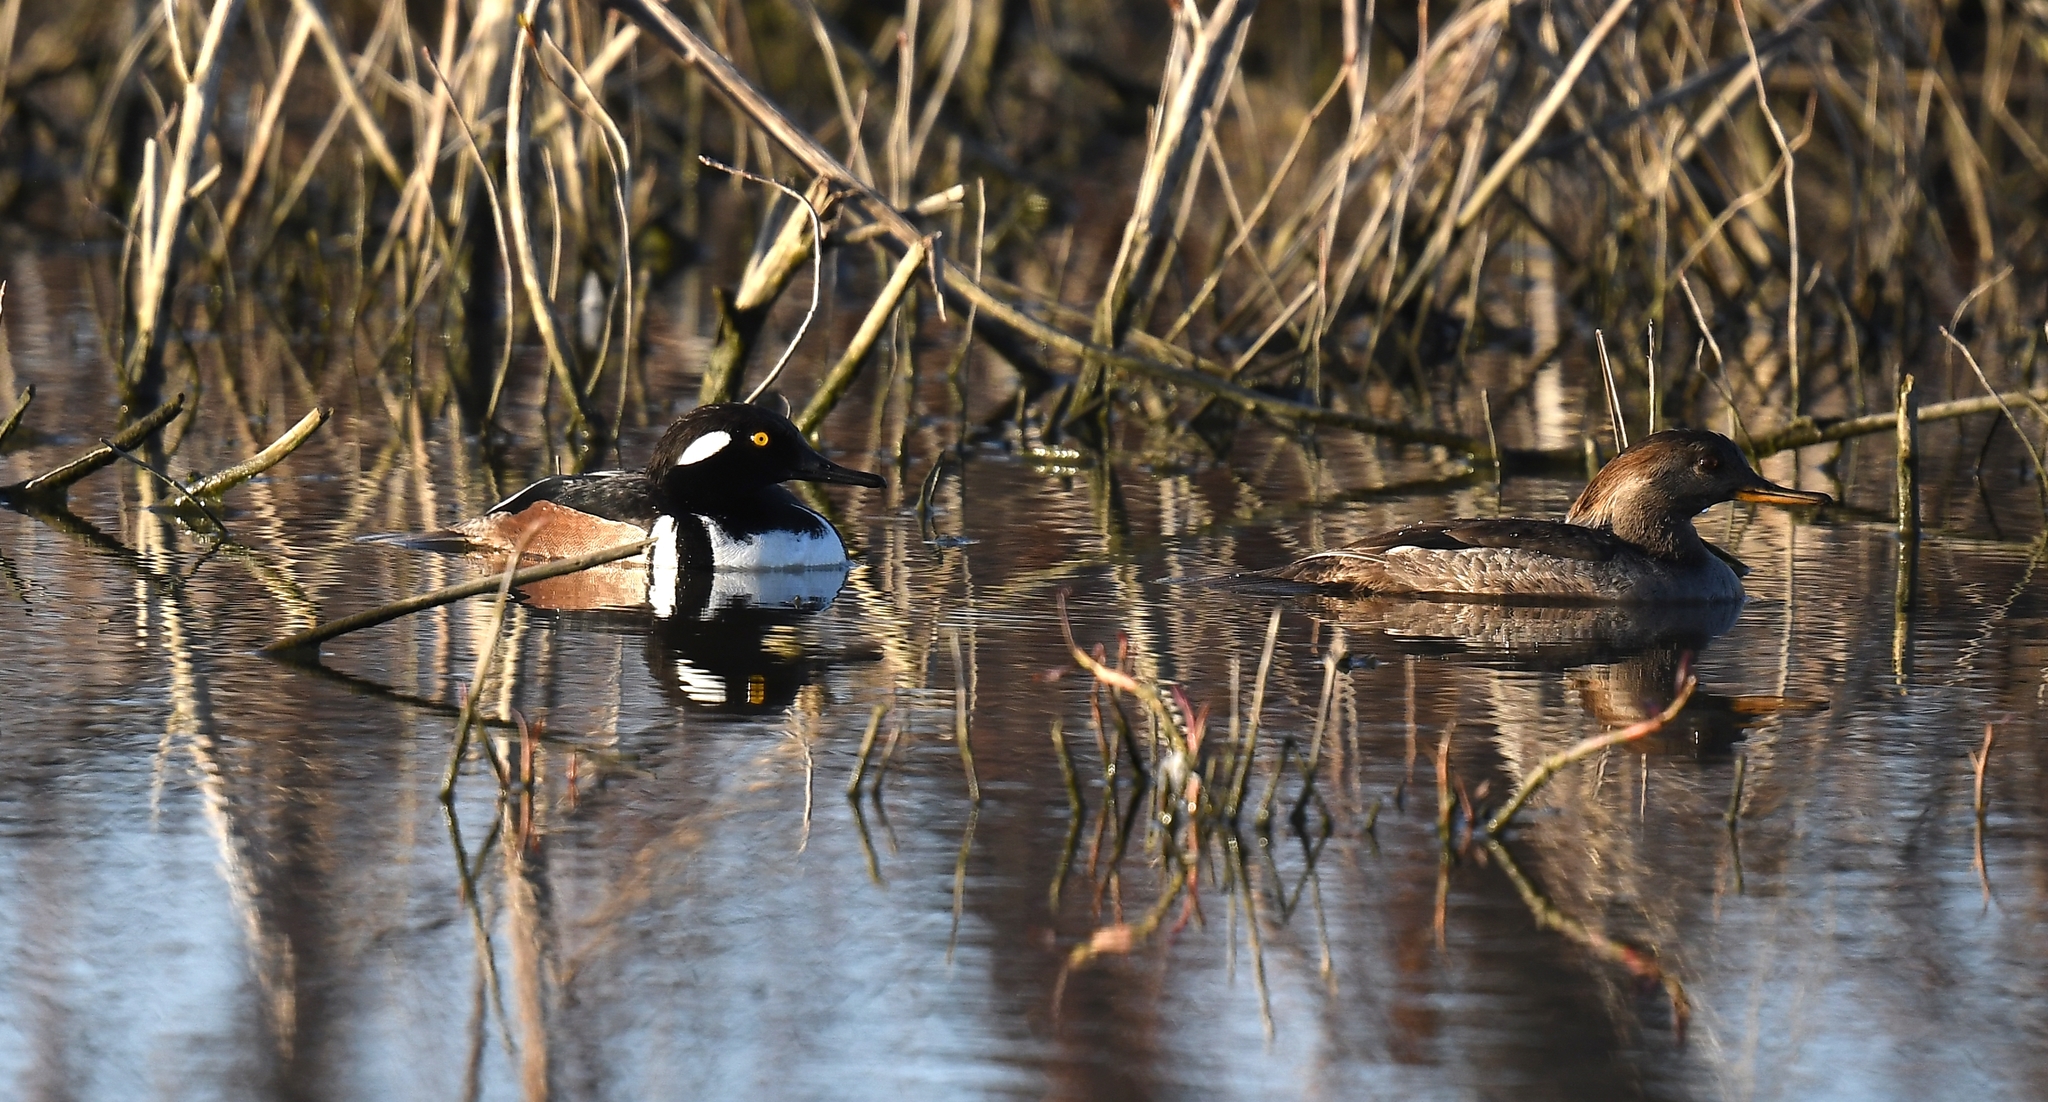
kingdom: Animalia
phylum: Chordata
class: Aves
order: Anseriformes
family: Anatidae
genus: Lophodytes
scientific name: Lophodytes cucullatus
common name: Hooded merganser
